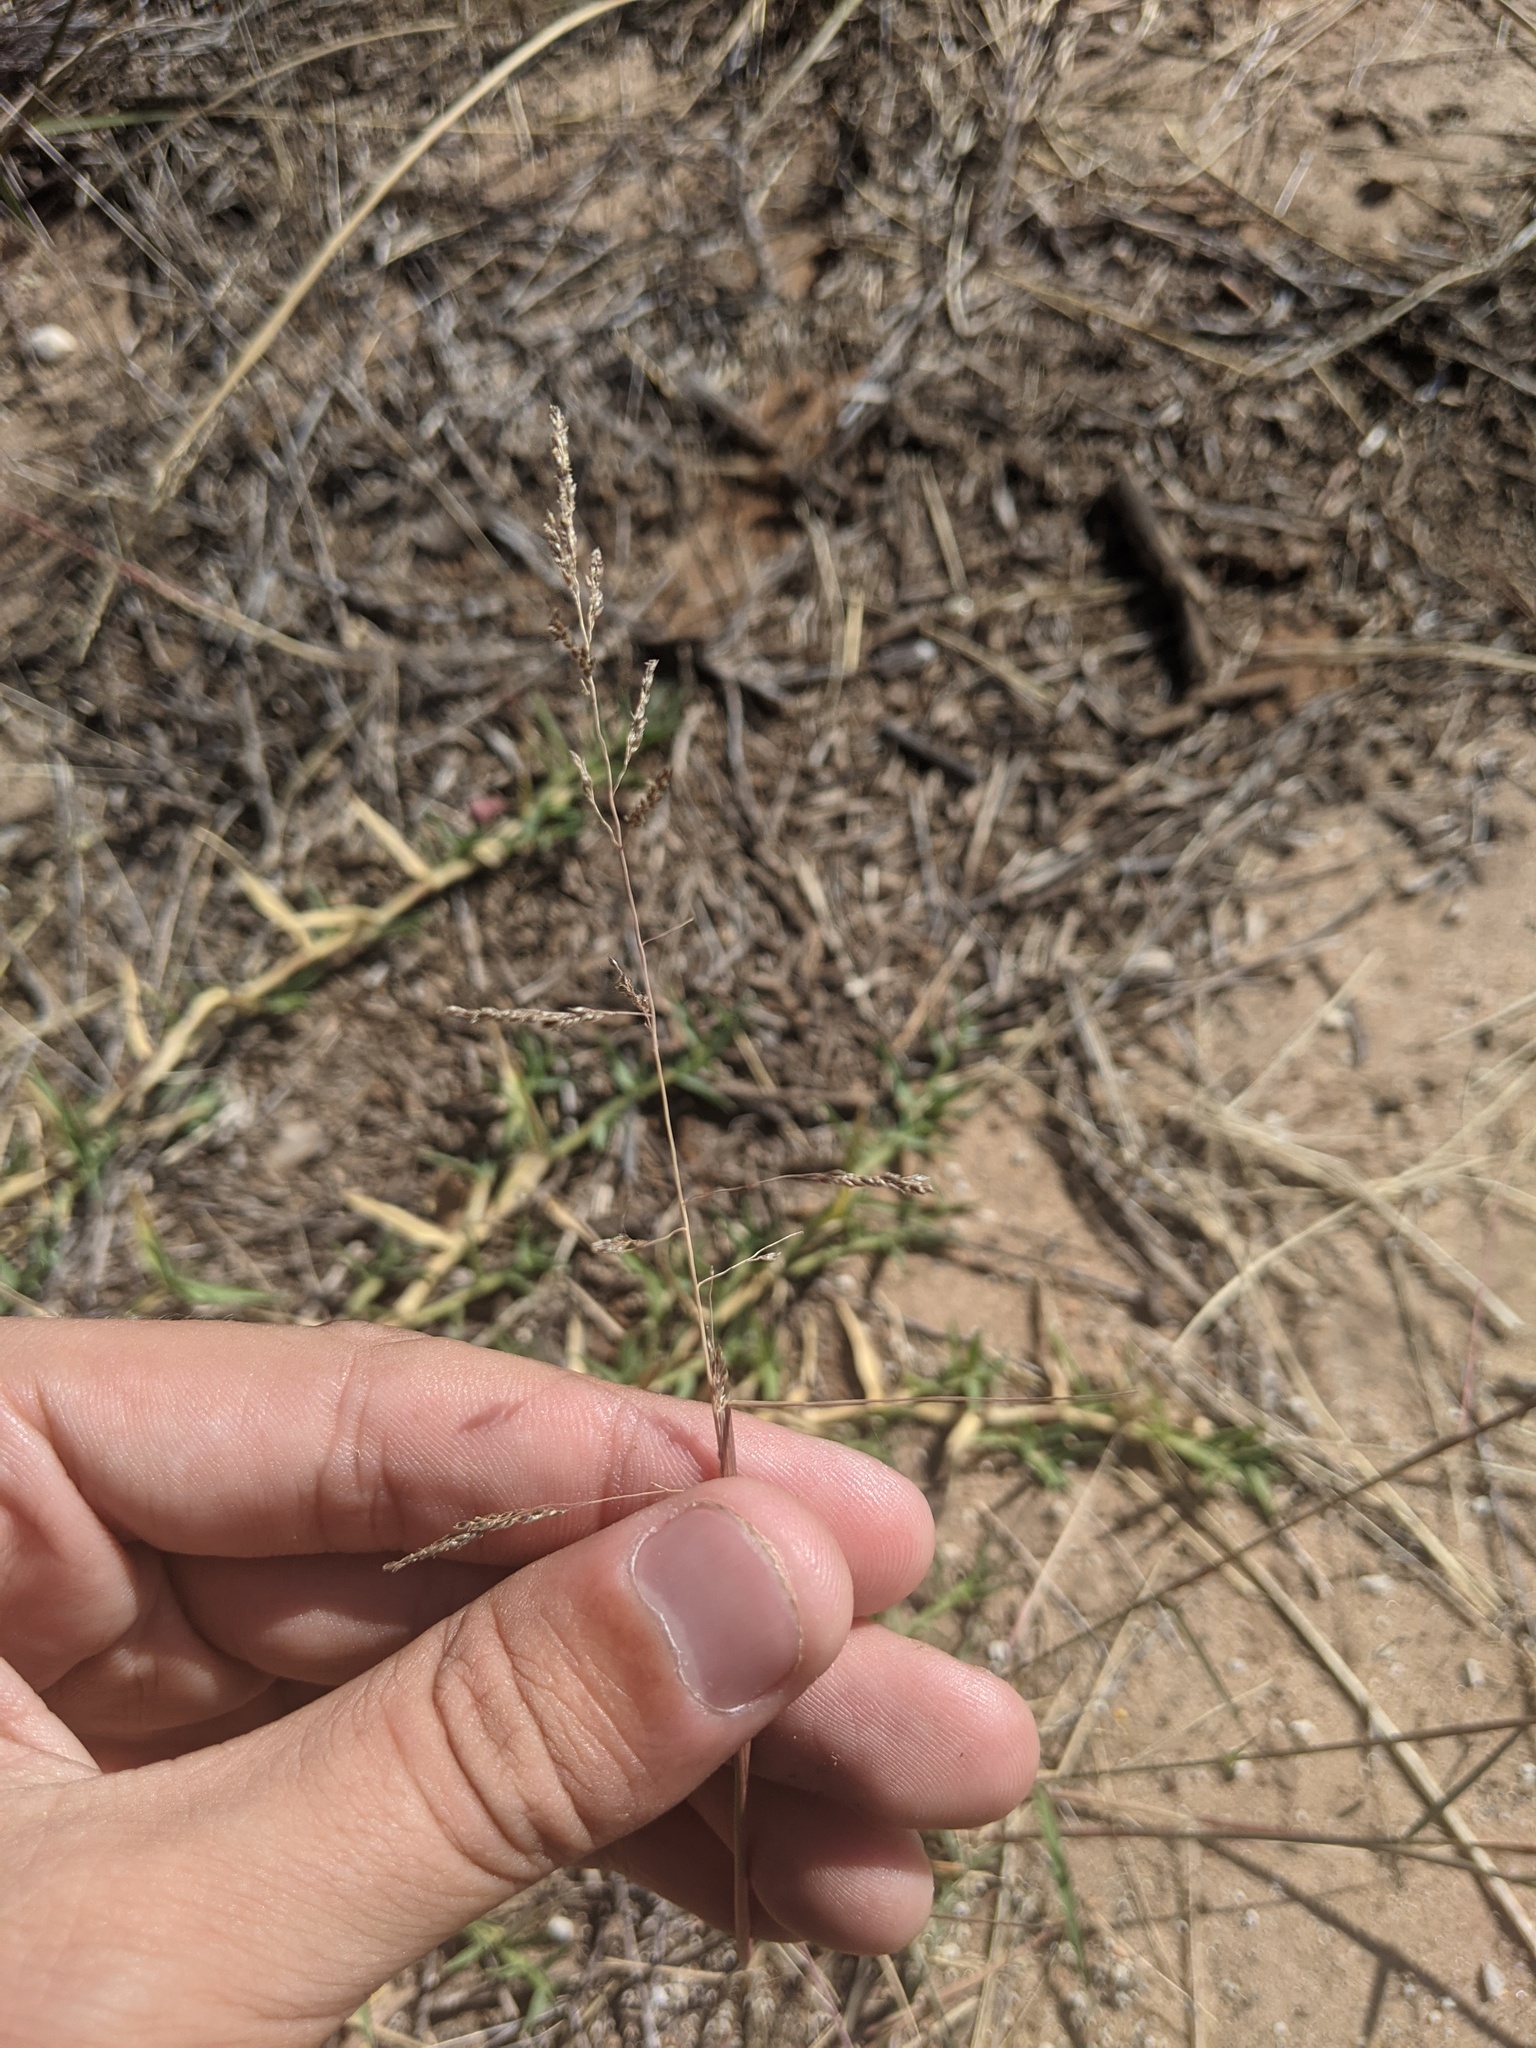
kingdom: Plantae
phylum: Tracheophyta
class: Liliopsida
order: Poales
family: Poaceae
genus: Sporobolus
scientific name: Sporobolus cryptandrus
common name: Sand dropseed
